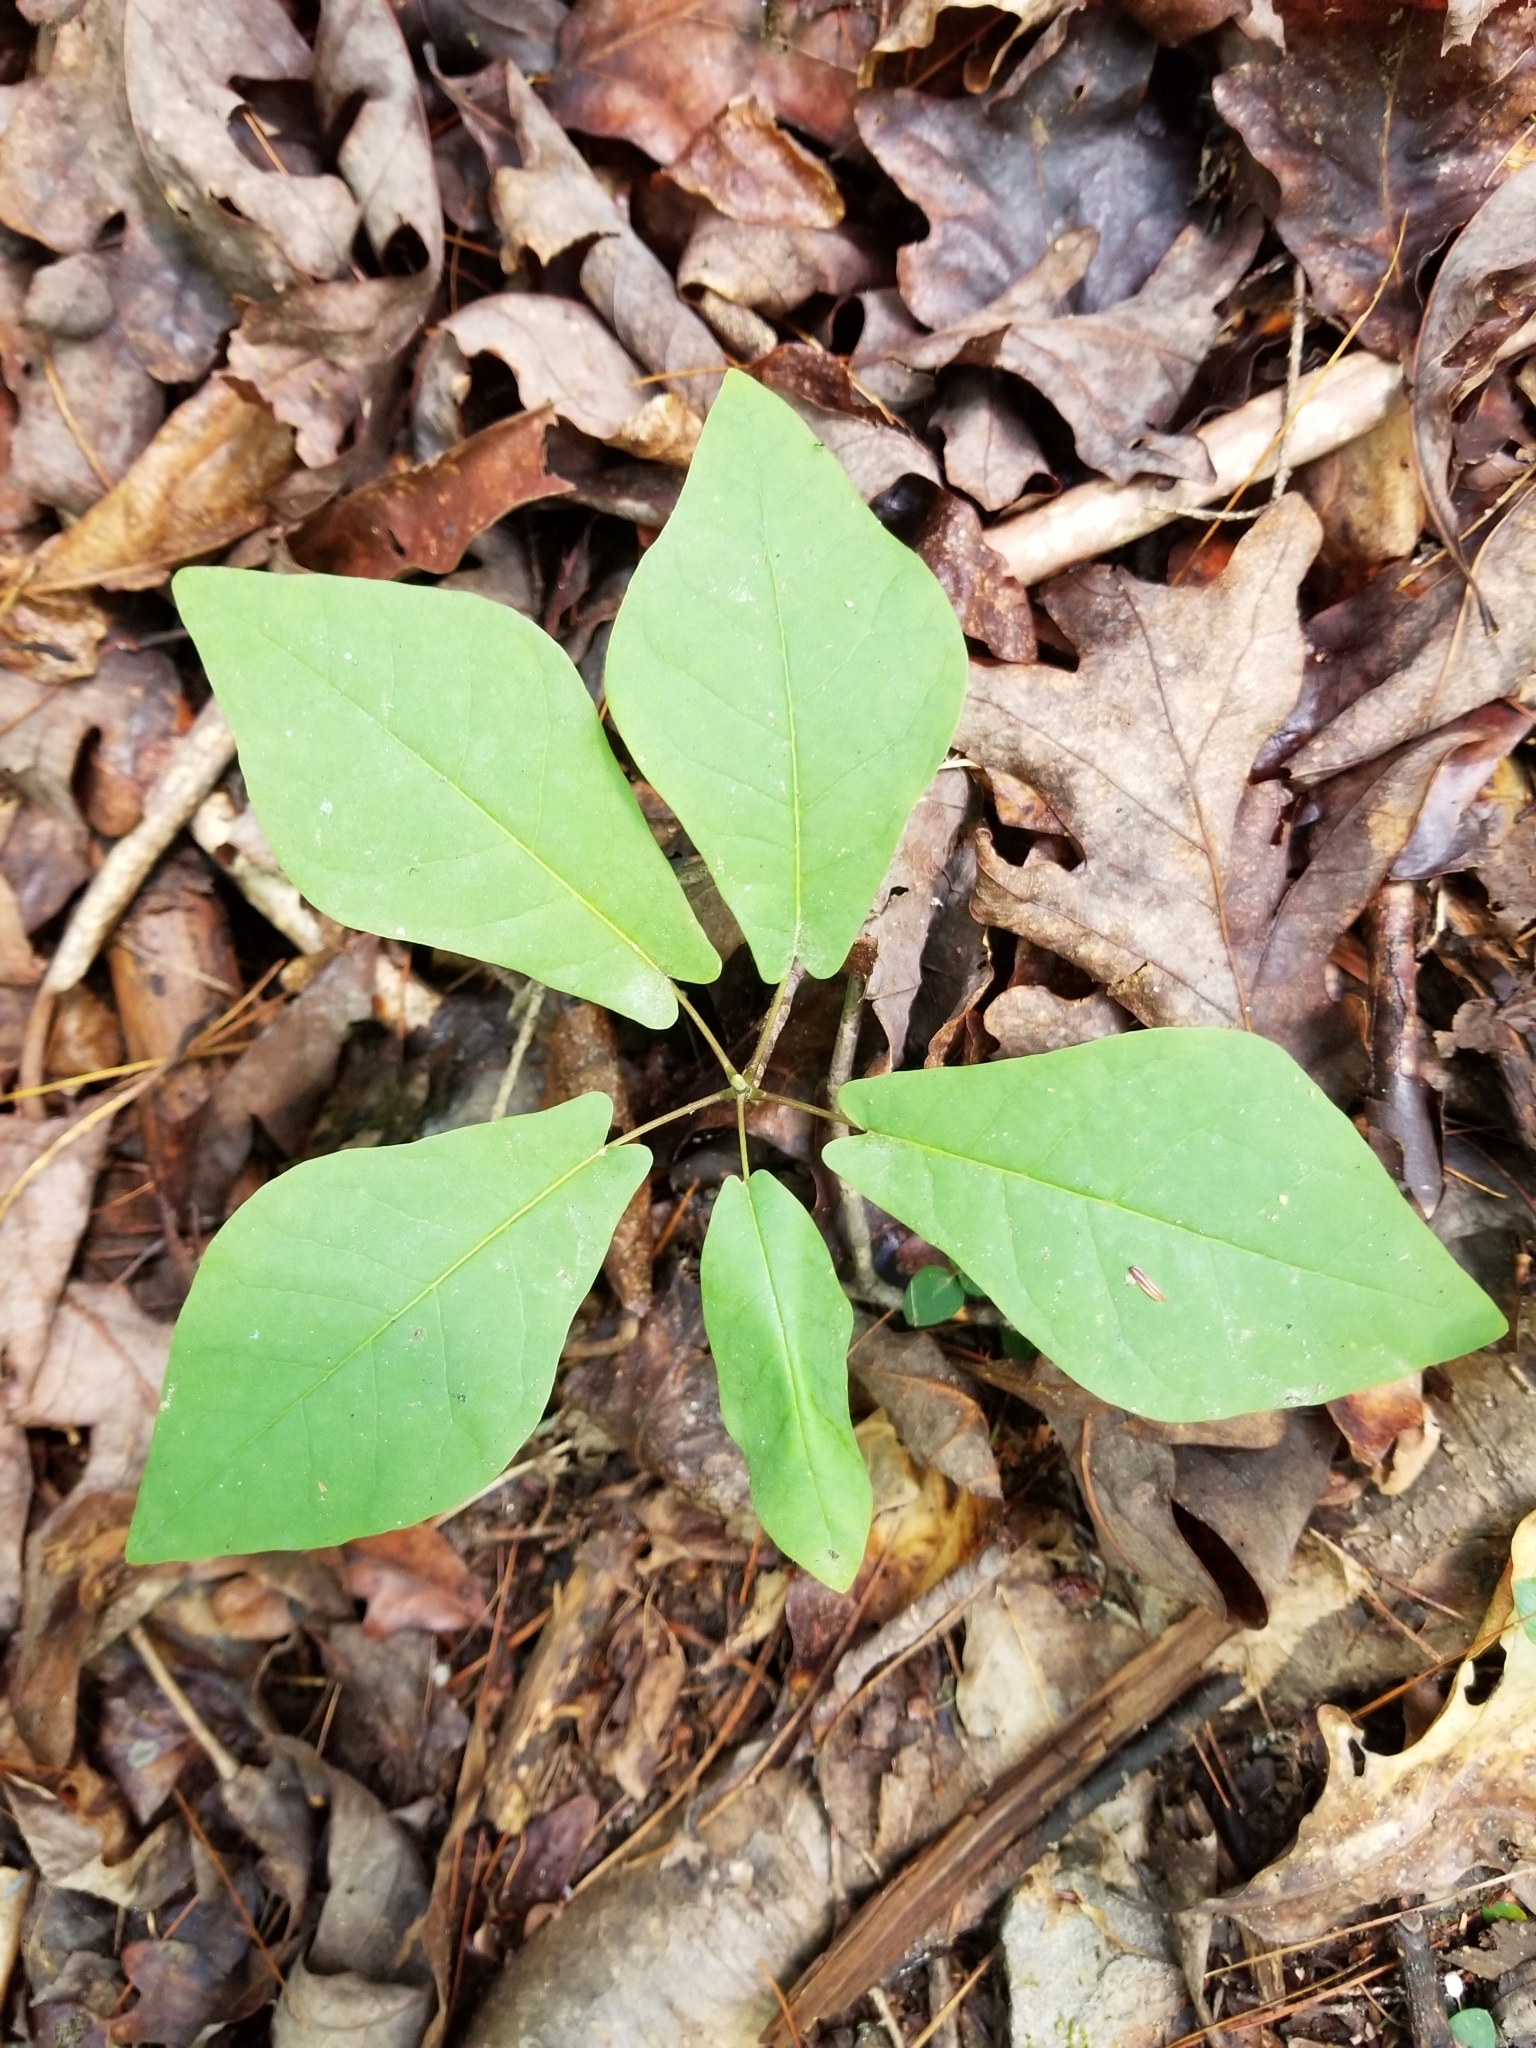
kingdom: Plantae
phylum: Tracheophyta
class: Magnoliopsida
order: Magnoliales
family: Magnoliaceae
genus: Magnolia
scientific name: Magnolia fraseri
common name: Fraser's magnolia
